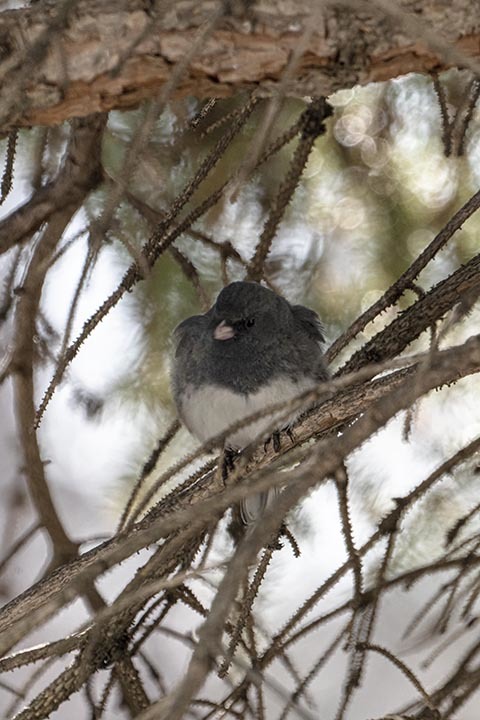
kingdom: Animalia
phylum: Chordata
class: Aves
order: Passeriformes
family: Passerellidae
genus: Junco
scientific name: Junco hyemalis
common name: Dark-eyed junco
